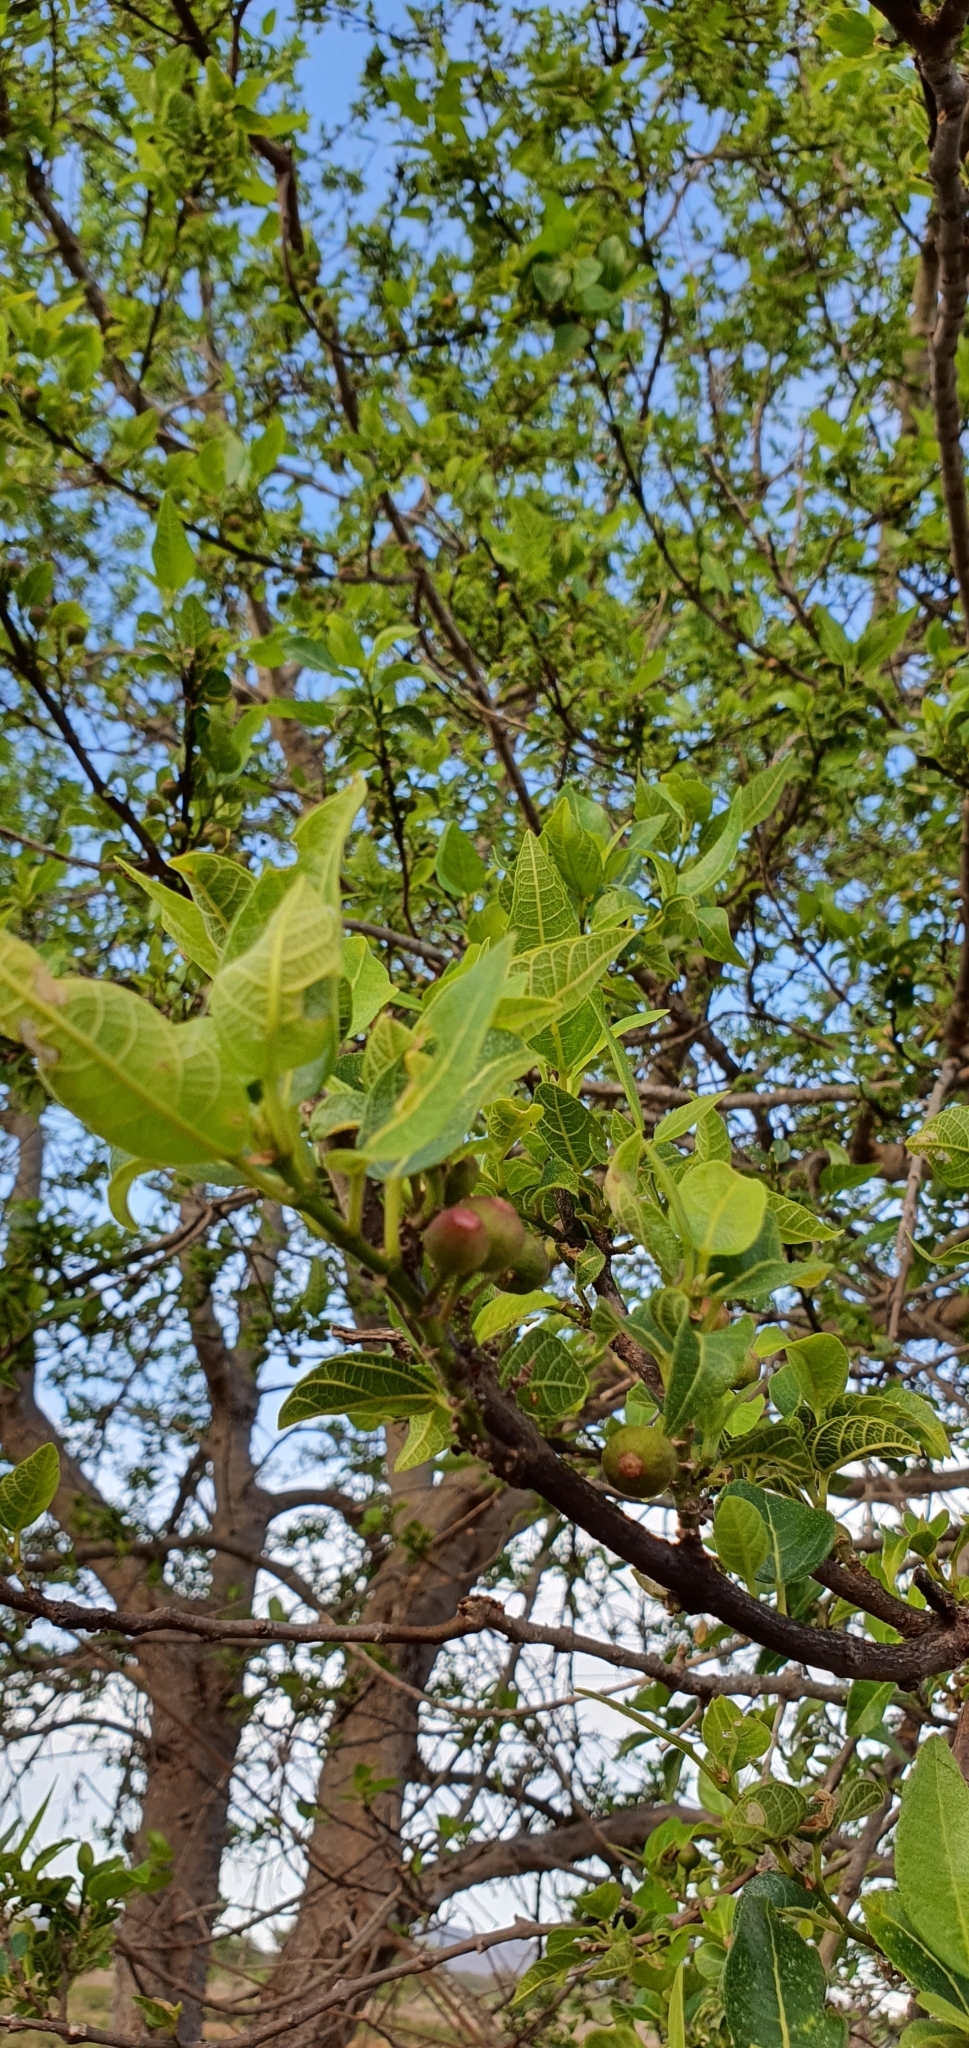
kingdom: Plantae
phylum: Tracheophyta
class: Magnoliopsida
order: Rosales
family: Moraceae
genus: Ficus
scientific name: Ficus opposita
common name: Figwood
